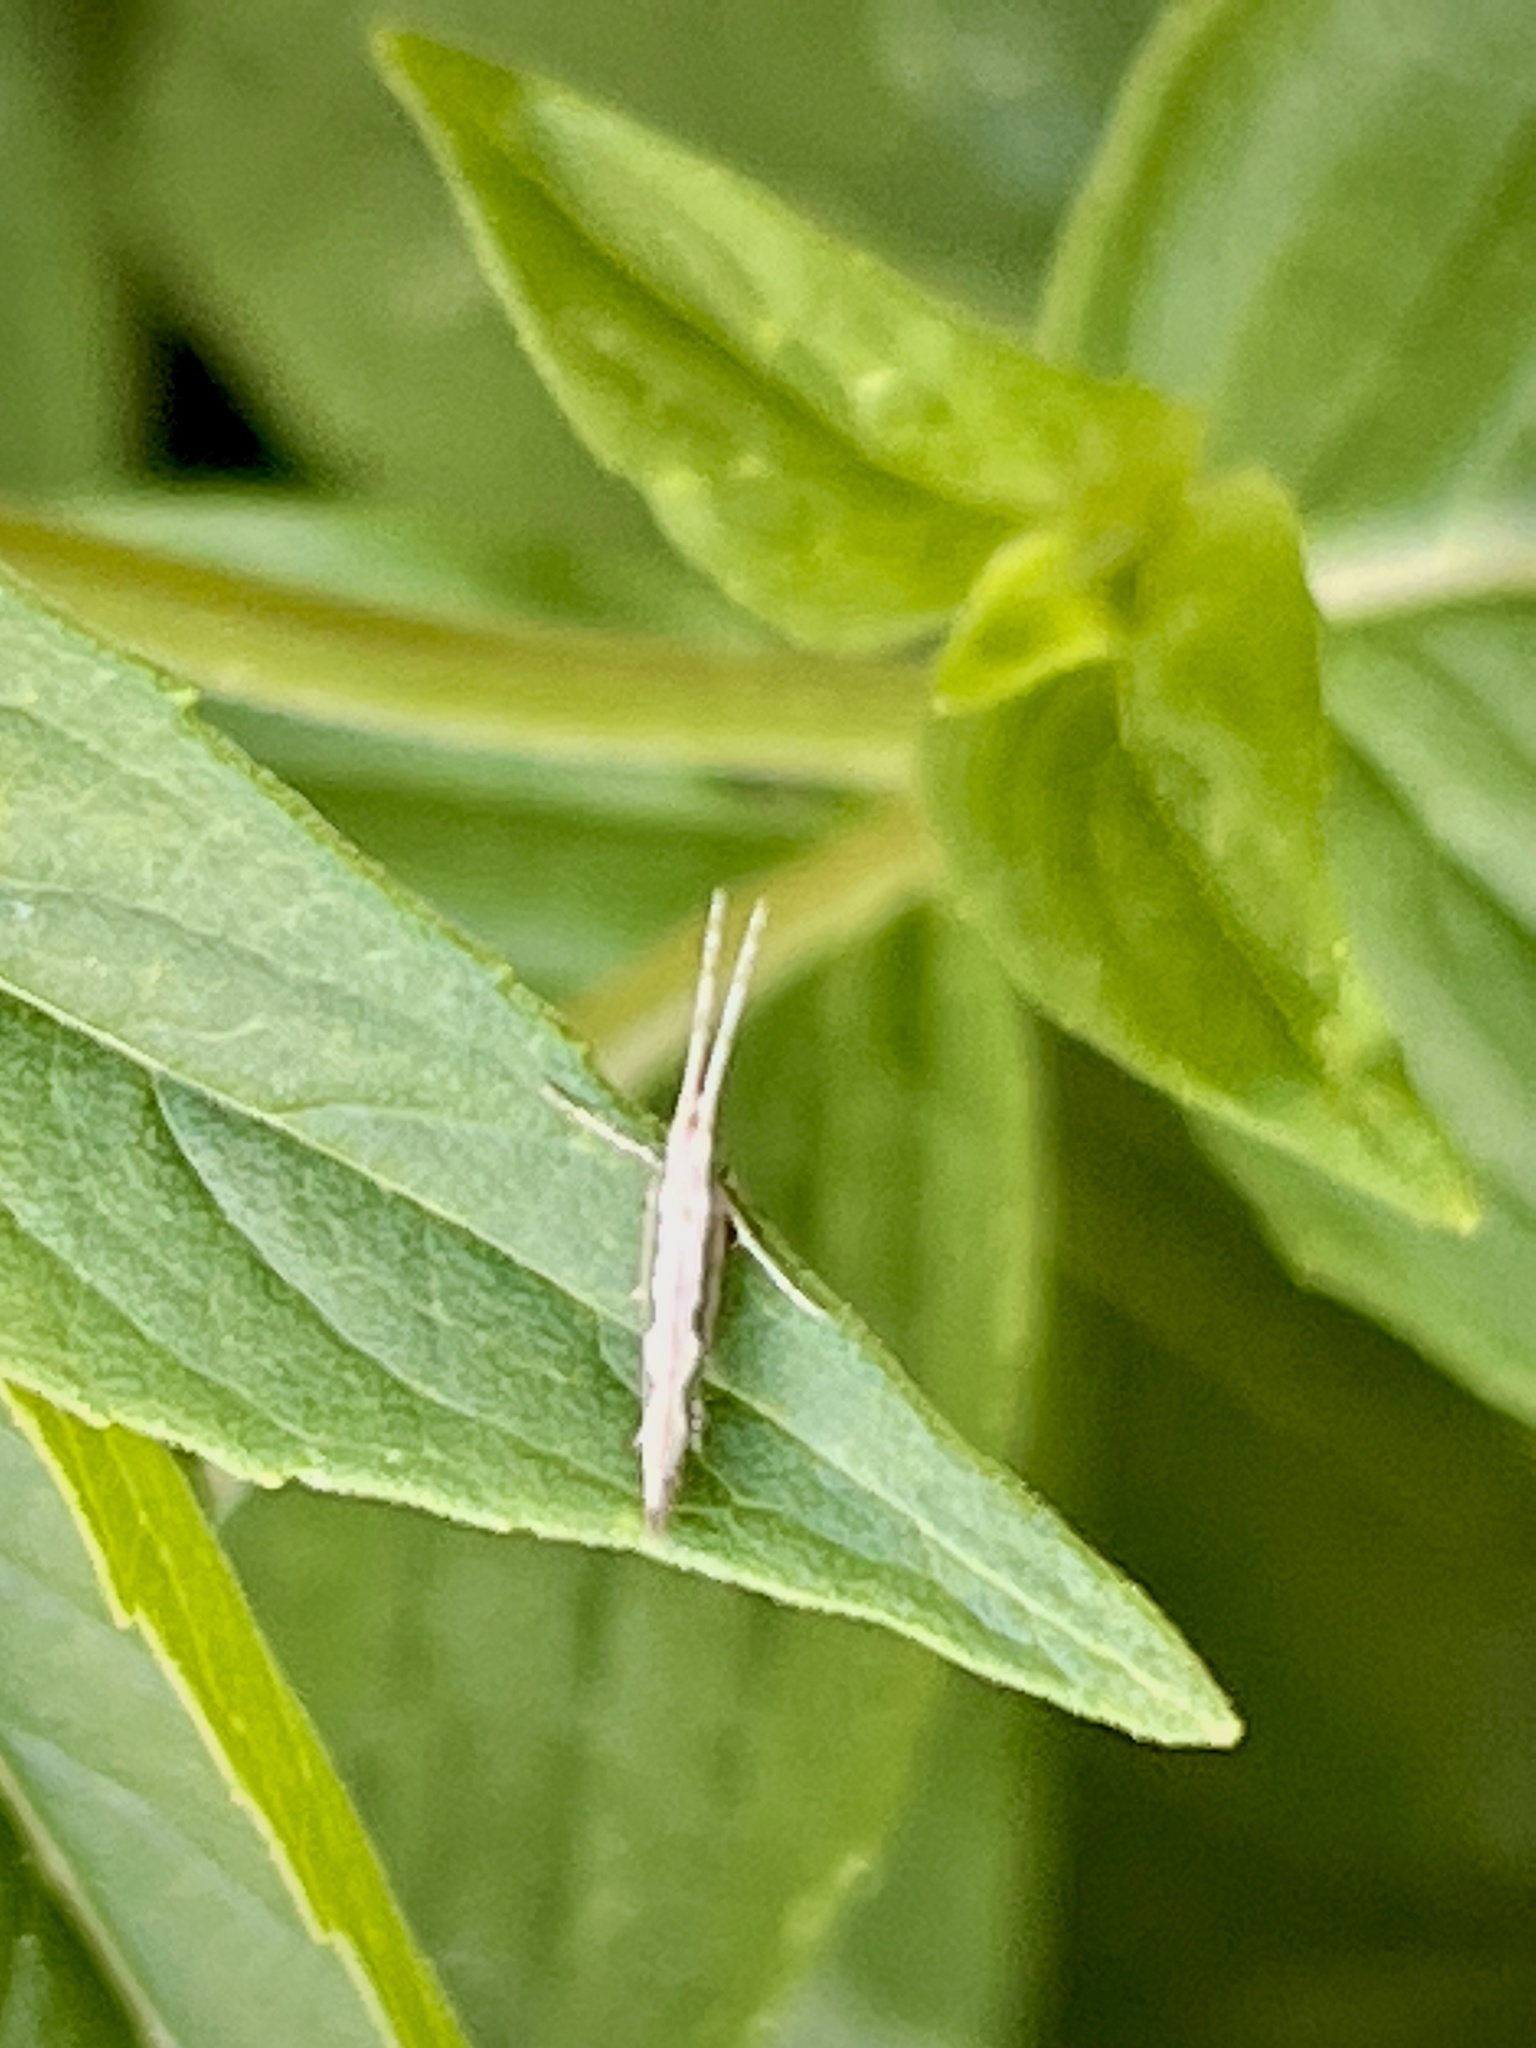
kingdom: Animalia
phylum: Arthropoda
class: Insecta
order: Lepidoptera
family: Plutellidae
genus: Plutella
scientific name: Plutella xylostella
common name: Diamond-back moth
